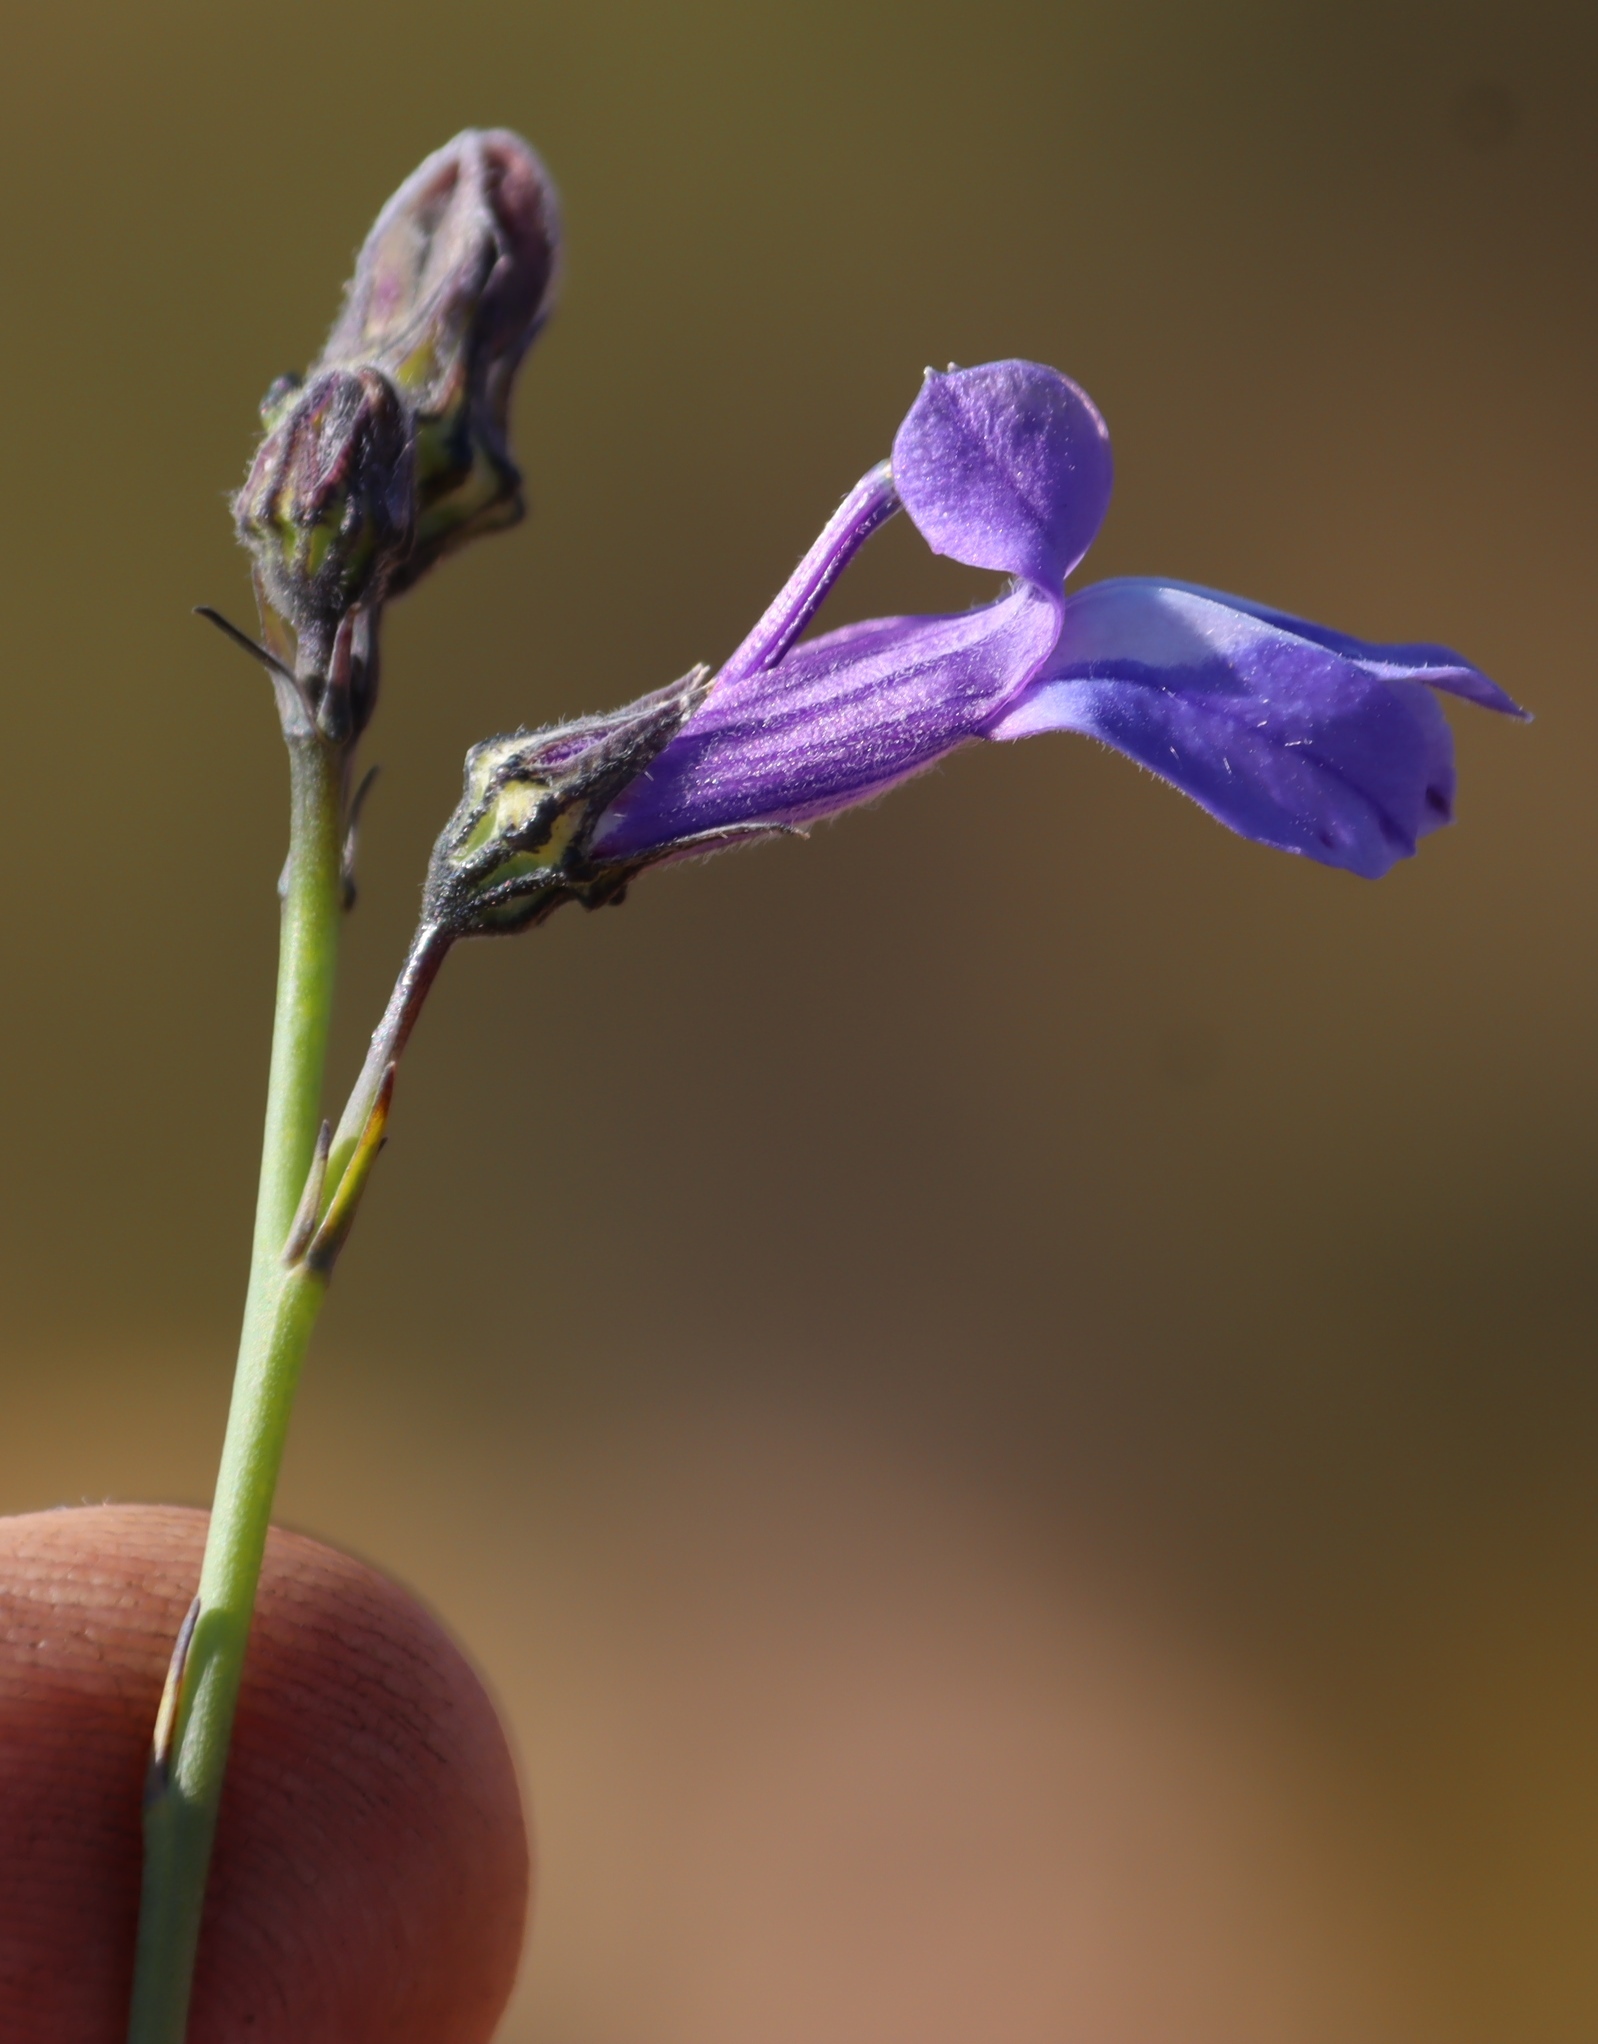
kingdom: Plantae
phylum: Tracheophyta
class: Magnoliopsida
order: Asterales
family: Campanulaceae
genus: Lobelia
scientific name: Lobelia linearis
